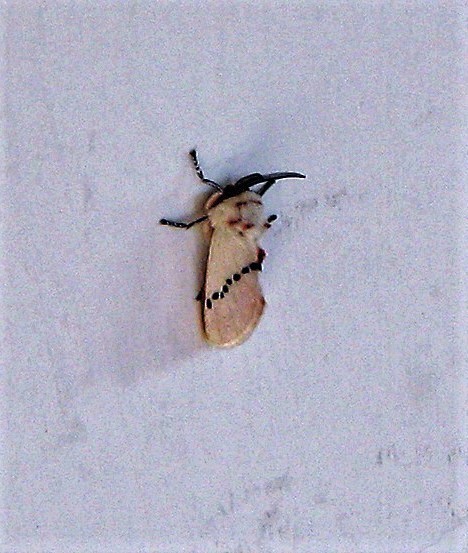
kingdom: Animalia
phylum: Arthropoda
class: Insecta
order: Lepidoptera
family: Megalopygidae
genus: Trosia
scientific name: Trosia misda
